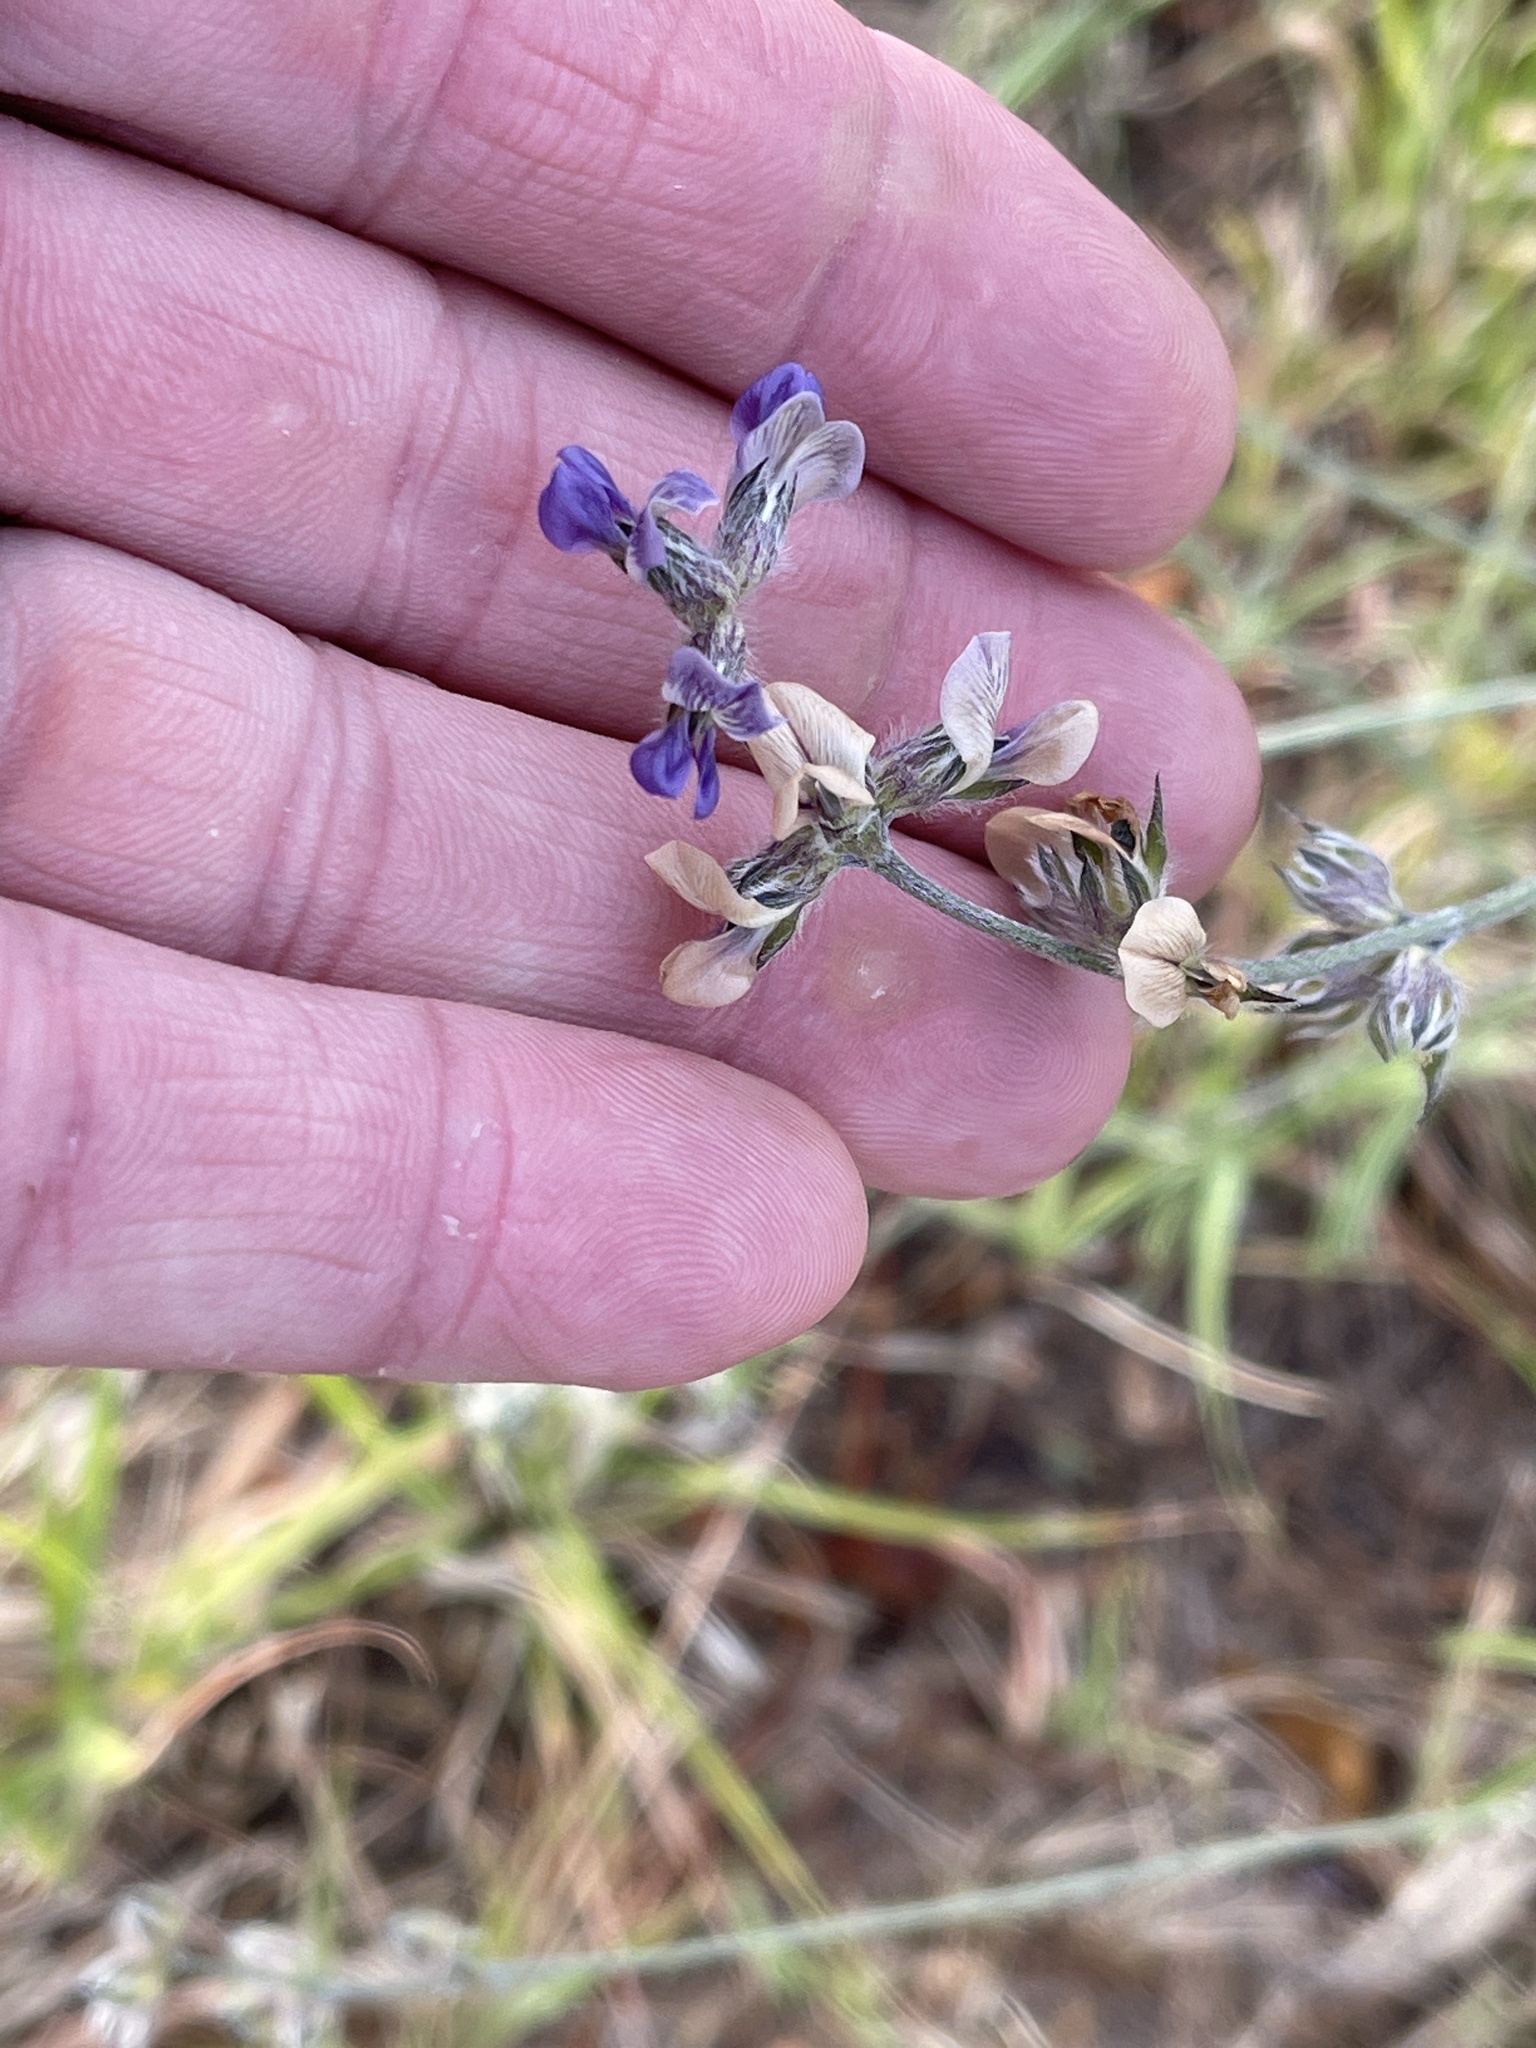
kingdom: Plantae
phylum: Tracheophyta
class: Magnoliopsida
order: Fabales
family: Fabaceae
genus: Pediomelum
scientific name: Pediomelum digitatum
